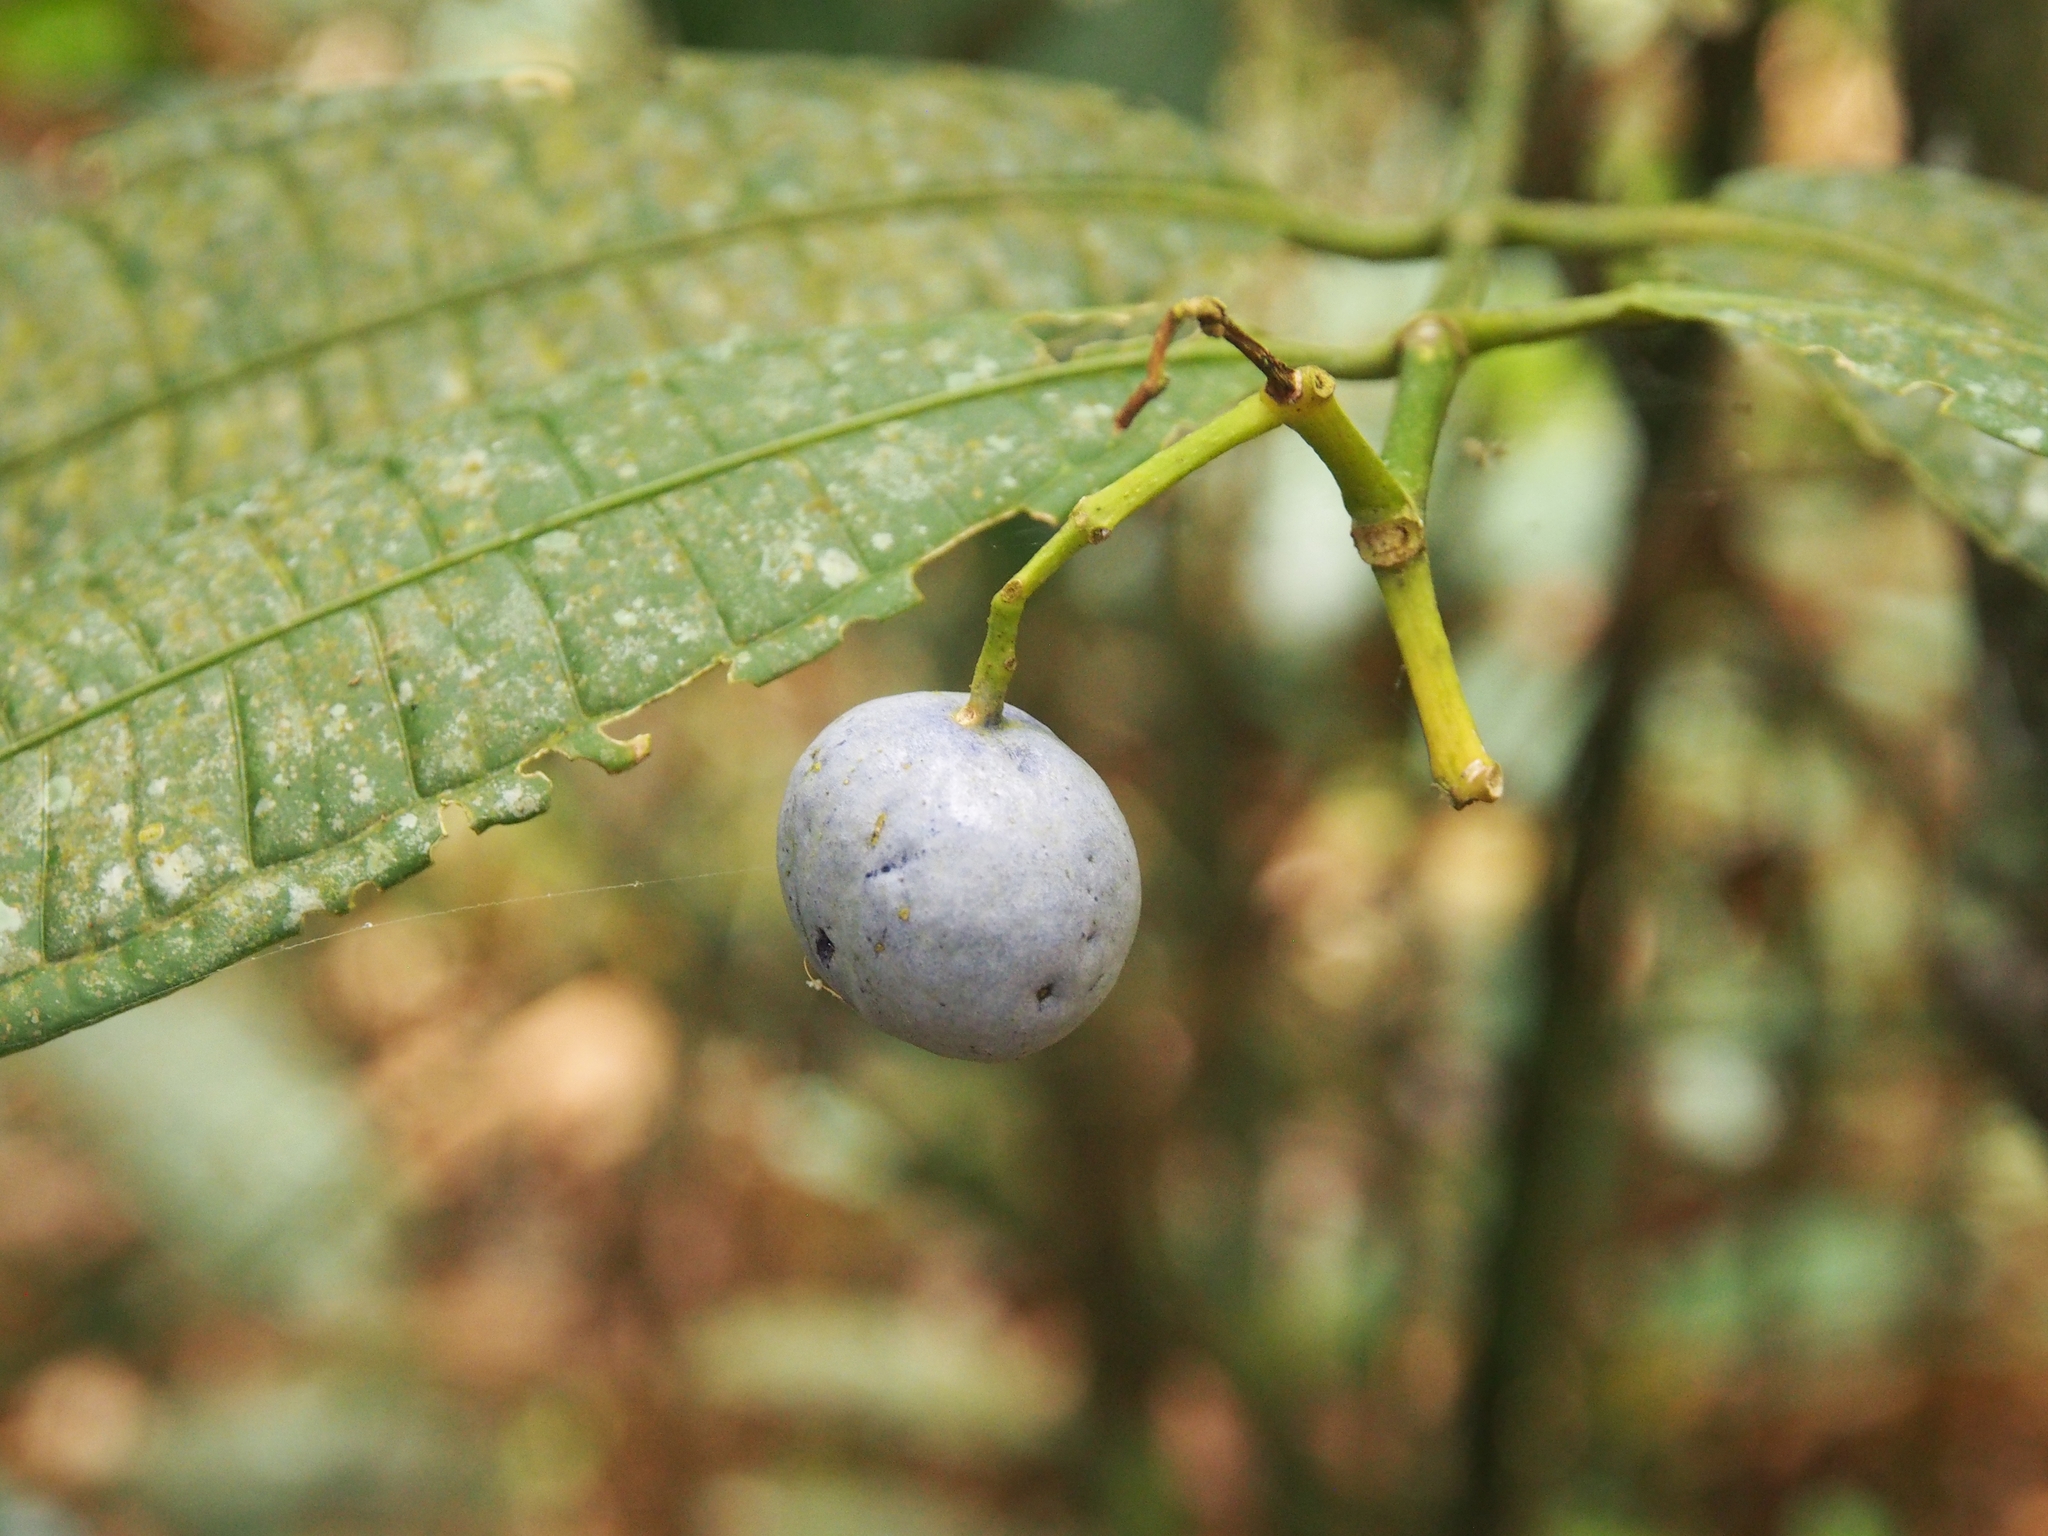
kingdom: Plantae
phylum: Tracheophyta
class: Magnoliopsida
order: Gentianales
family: Rubiaceae
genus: Faramea
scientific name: Faramea suerrensis
